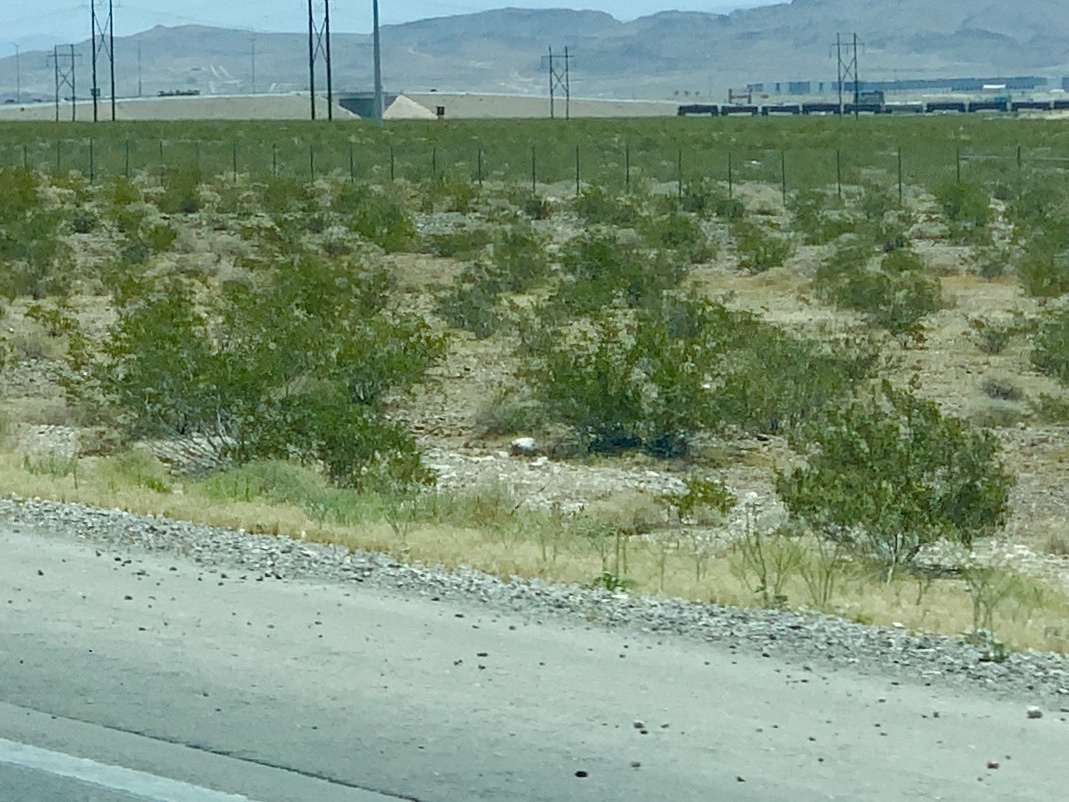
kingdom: Plantae
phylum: Tracheophyta
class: Magnoliopsida
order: Zygophyllales
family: Zygophyllaceae
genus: Larrea
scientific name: Larrea tridentata
